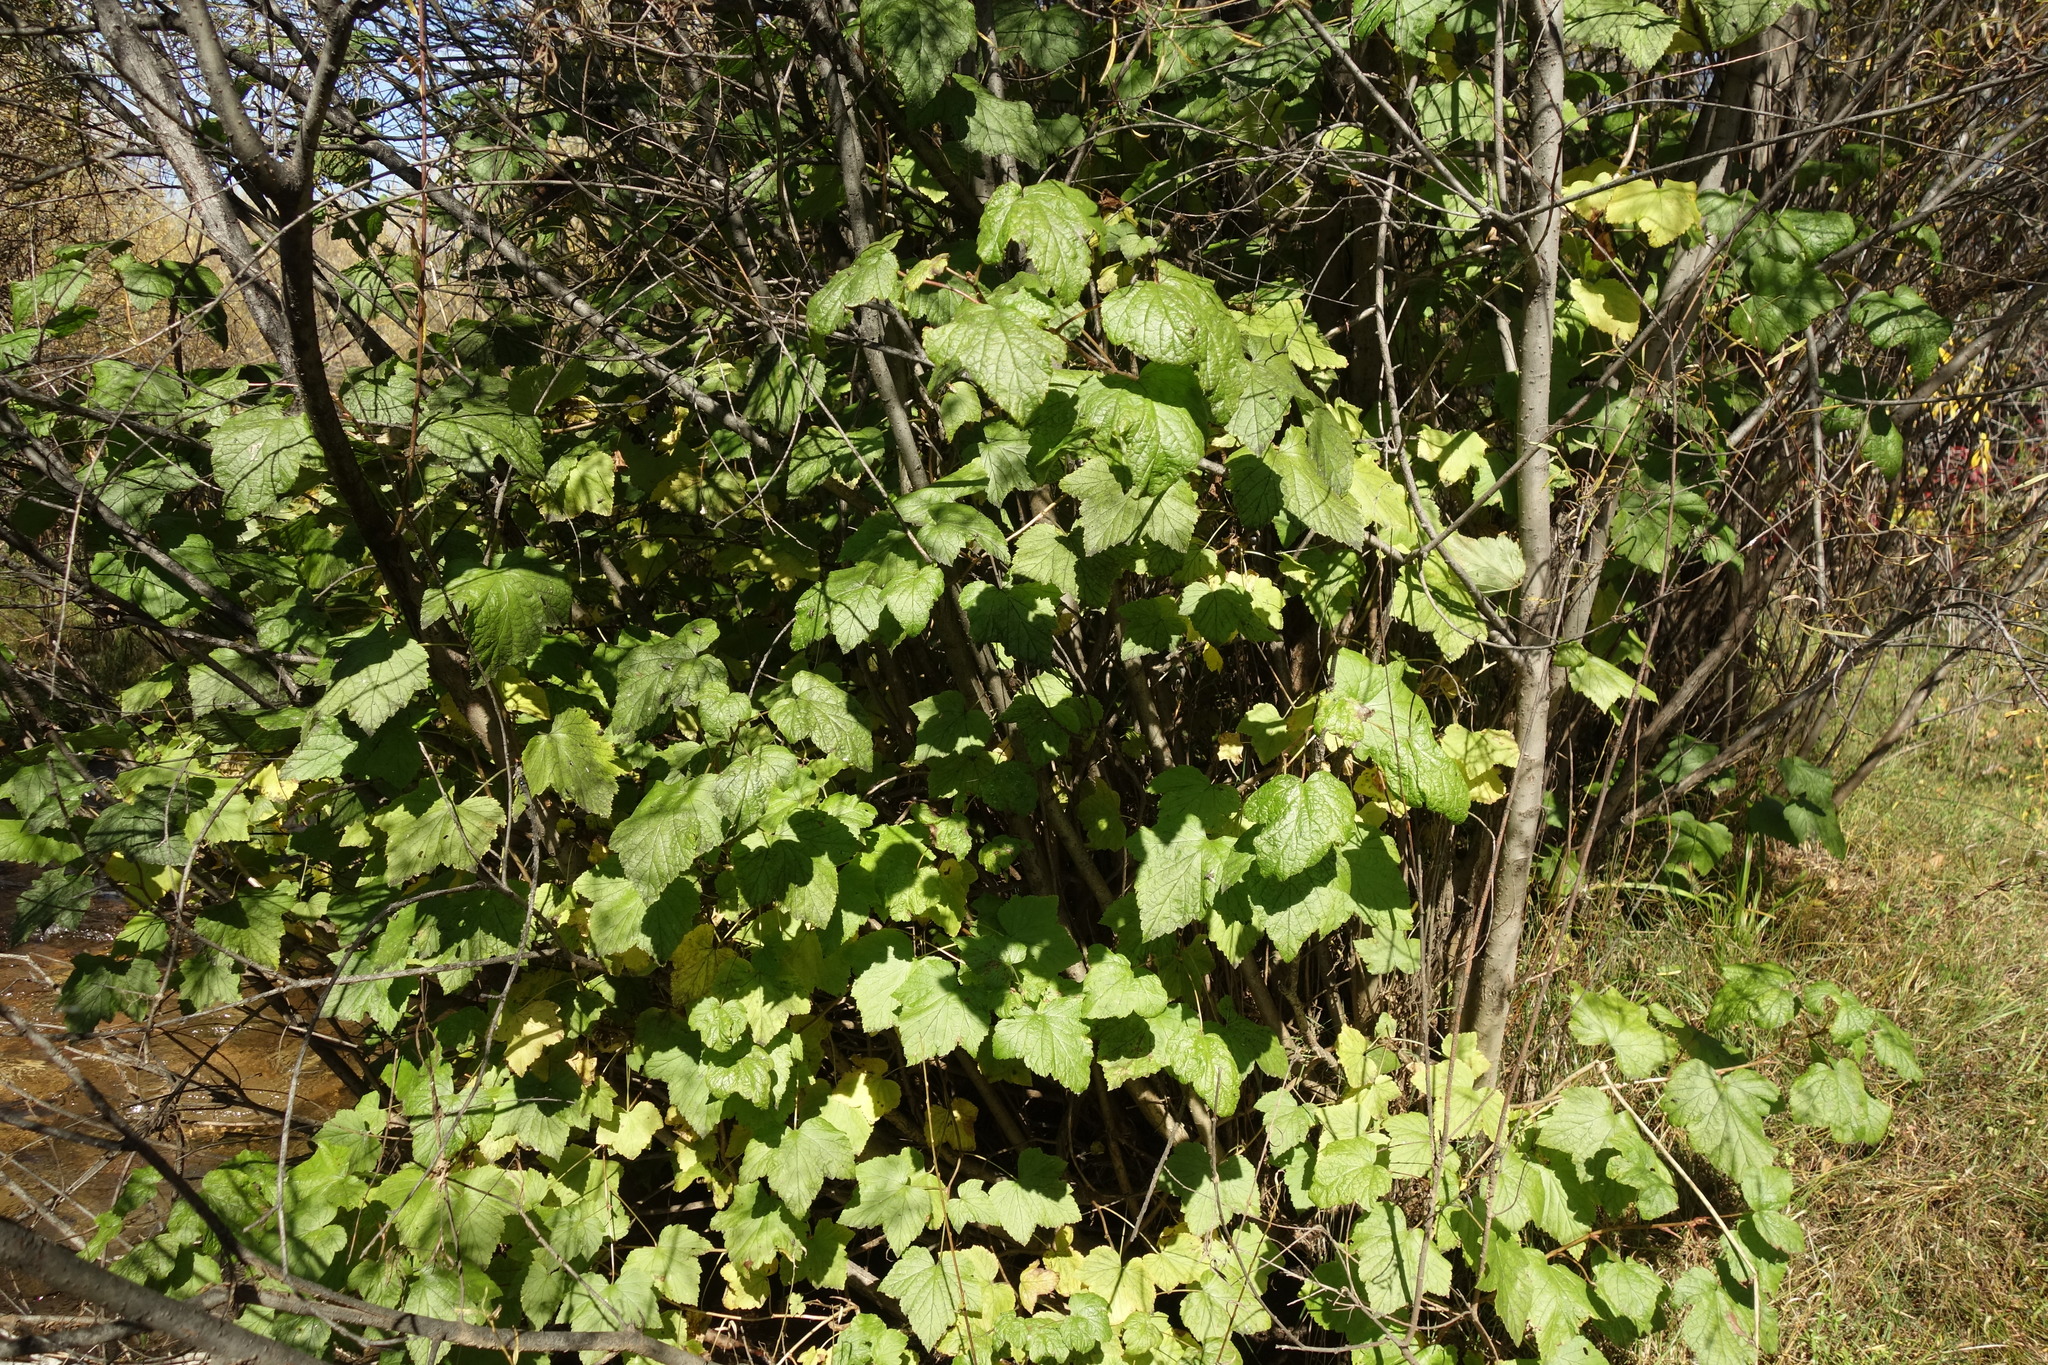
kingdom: Plantae
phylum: Tracheophyta
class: Magnoliopsida
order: Saxifragales
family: Grossulariaceae
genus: Ribes
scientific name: Ribes nigrum
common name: Black currant
